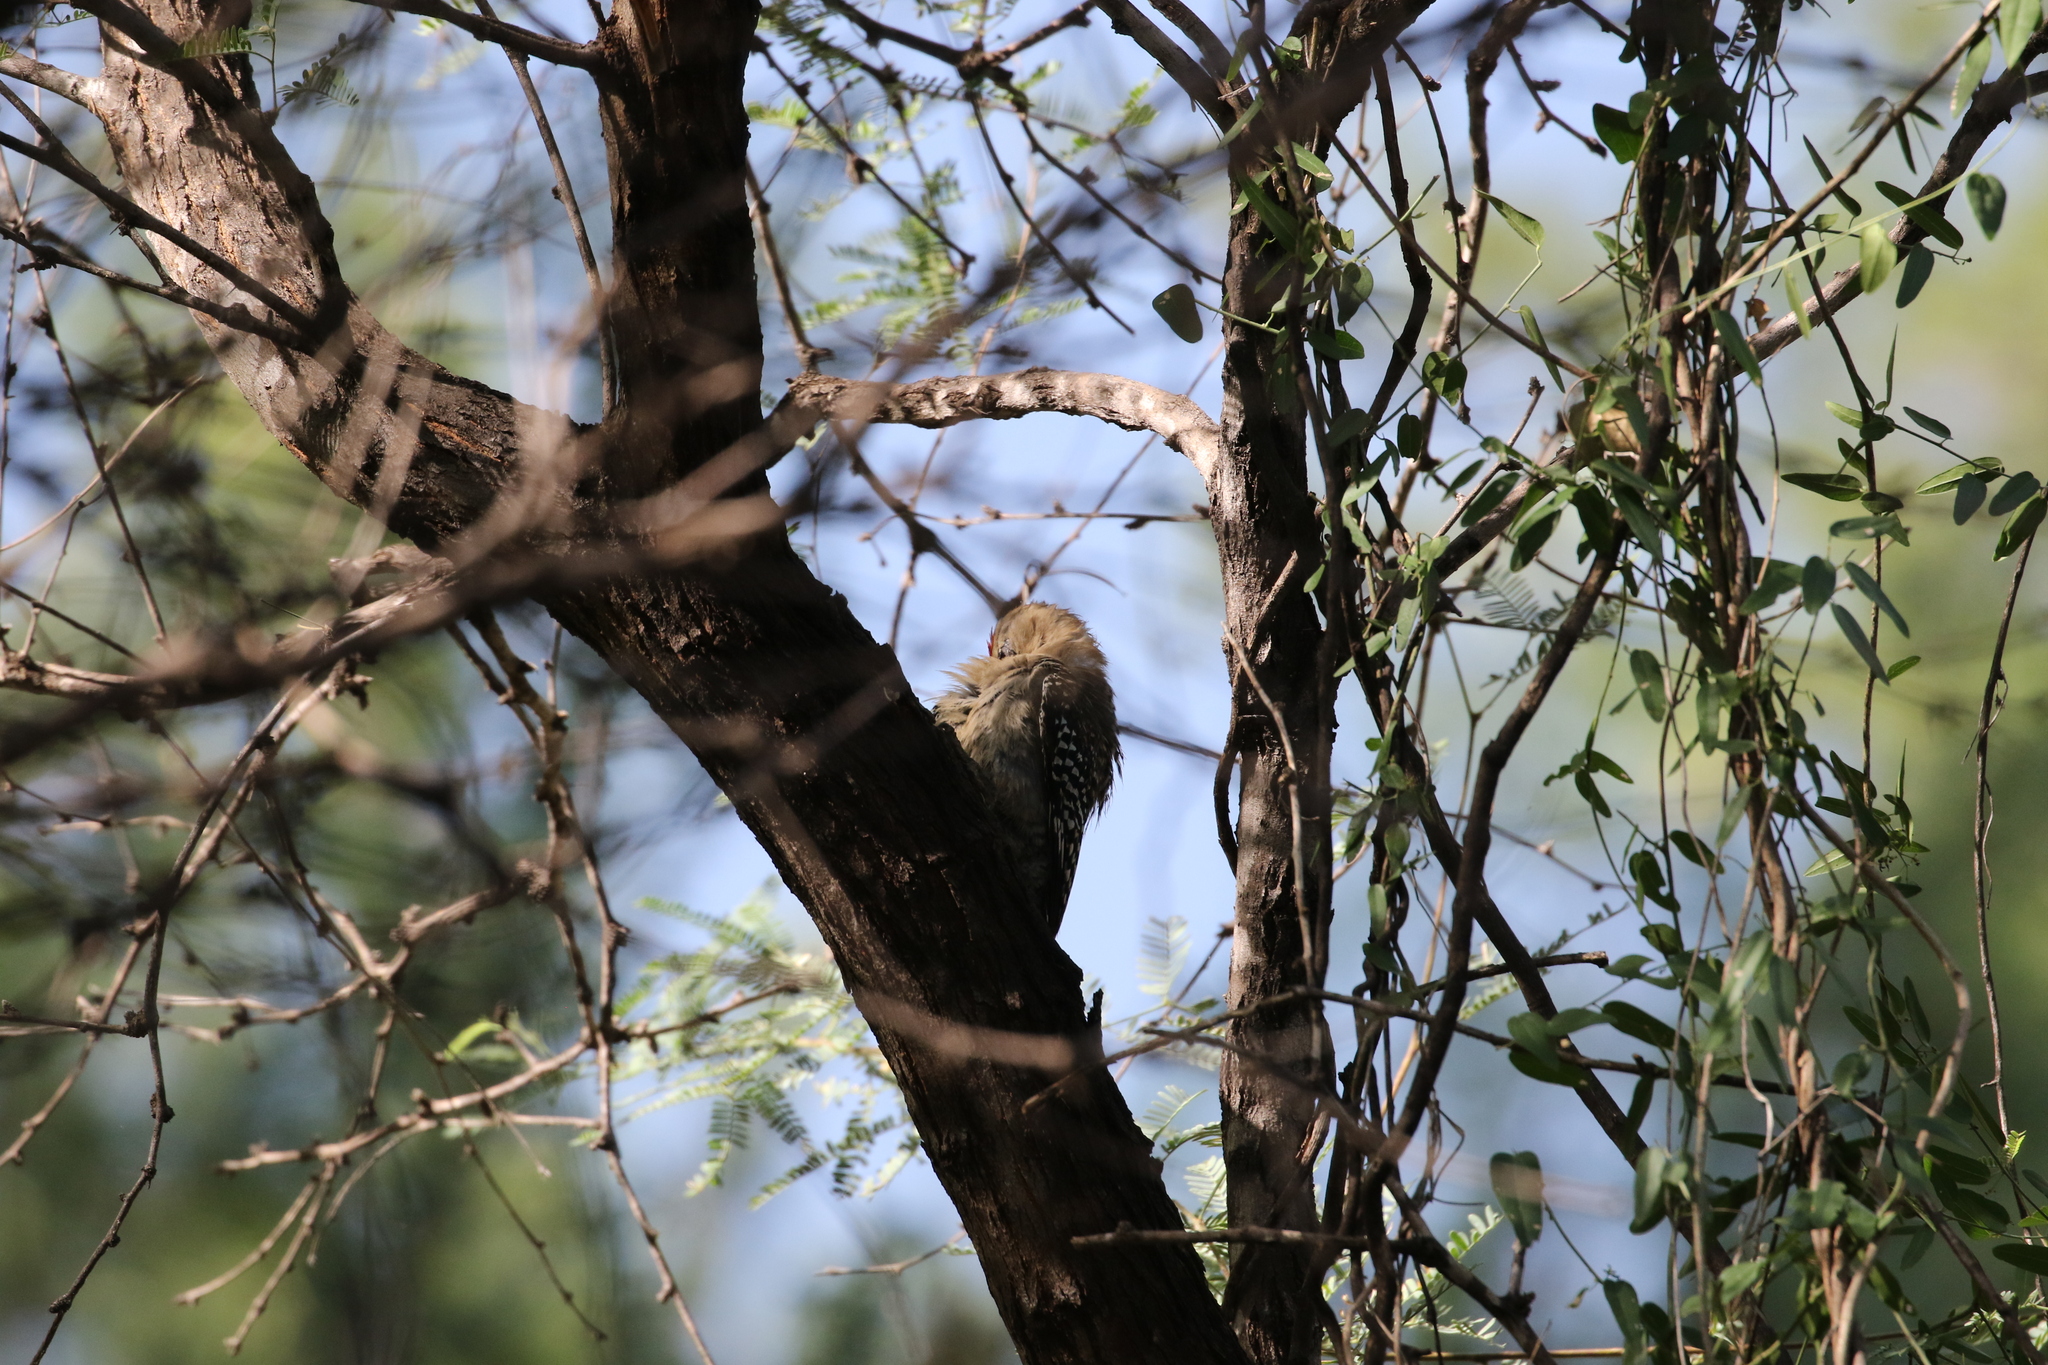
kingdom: Animalia
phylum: Chordata
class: Aves
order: Piciformes
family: Picidae
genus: Melanerpes
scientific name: Melanerpes uropygialis
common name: Gila woodpecker
